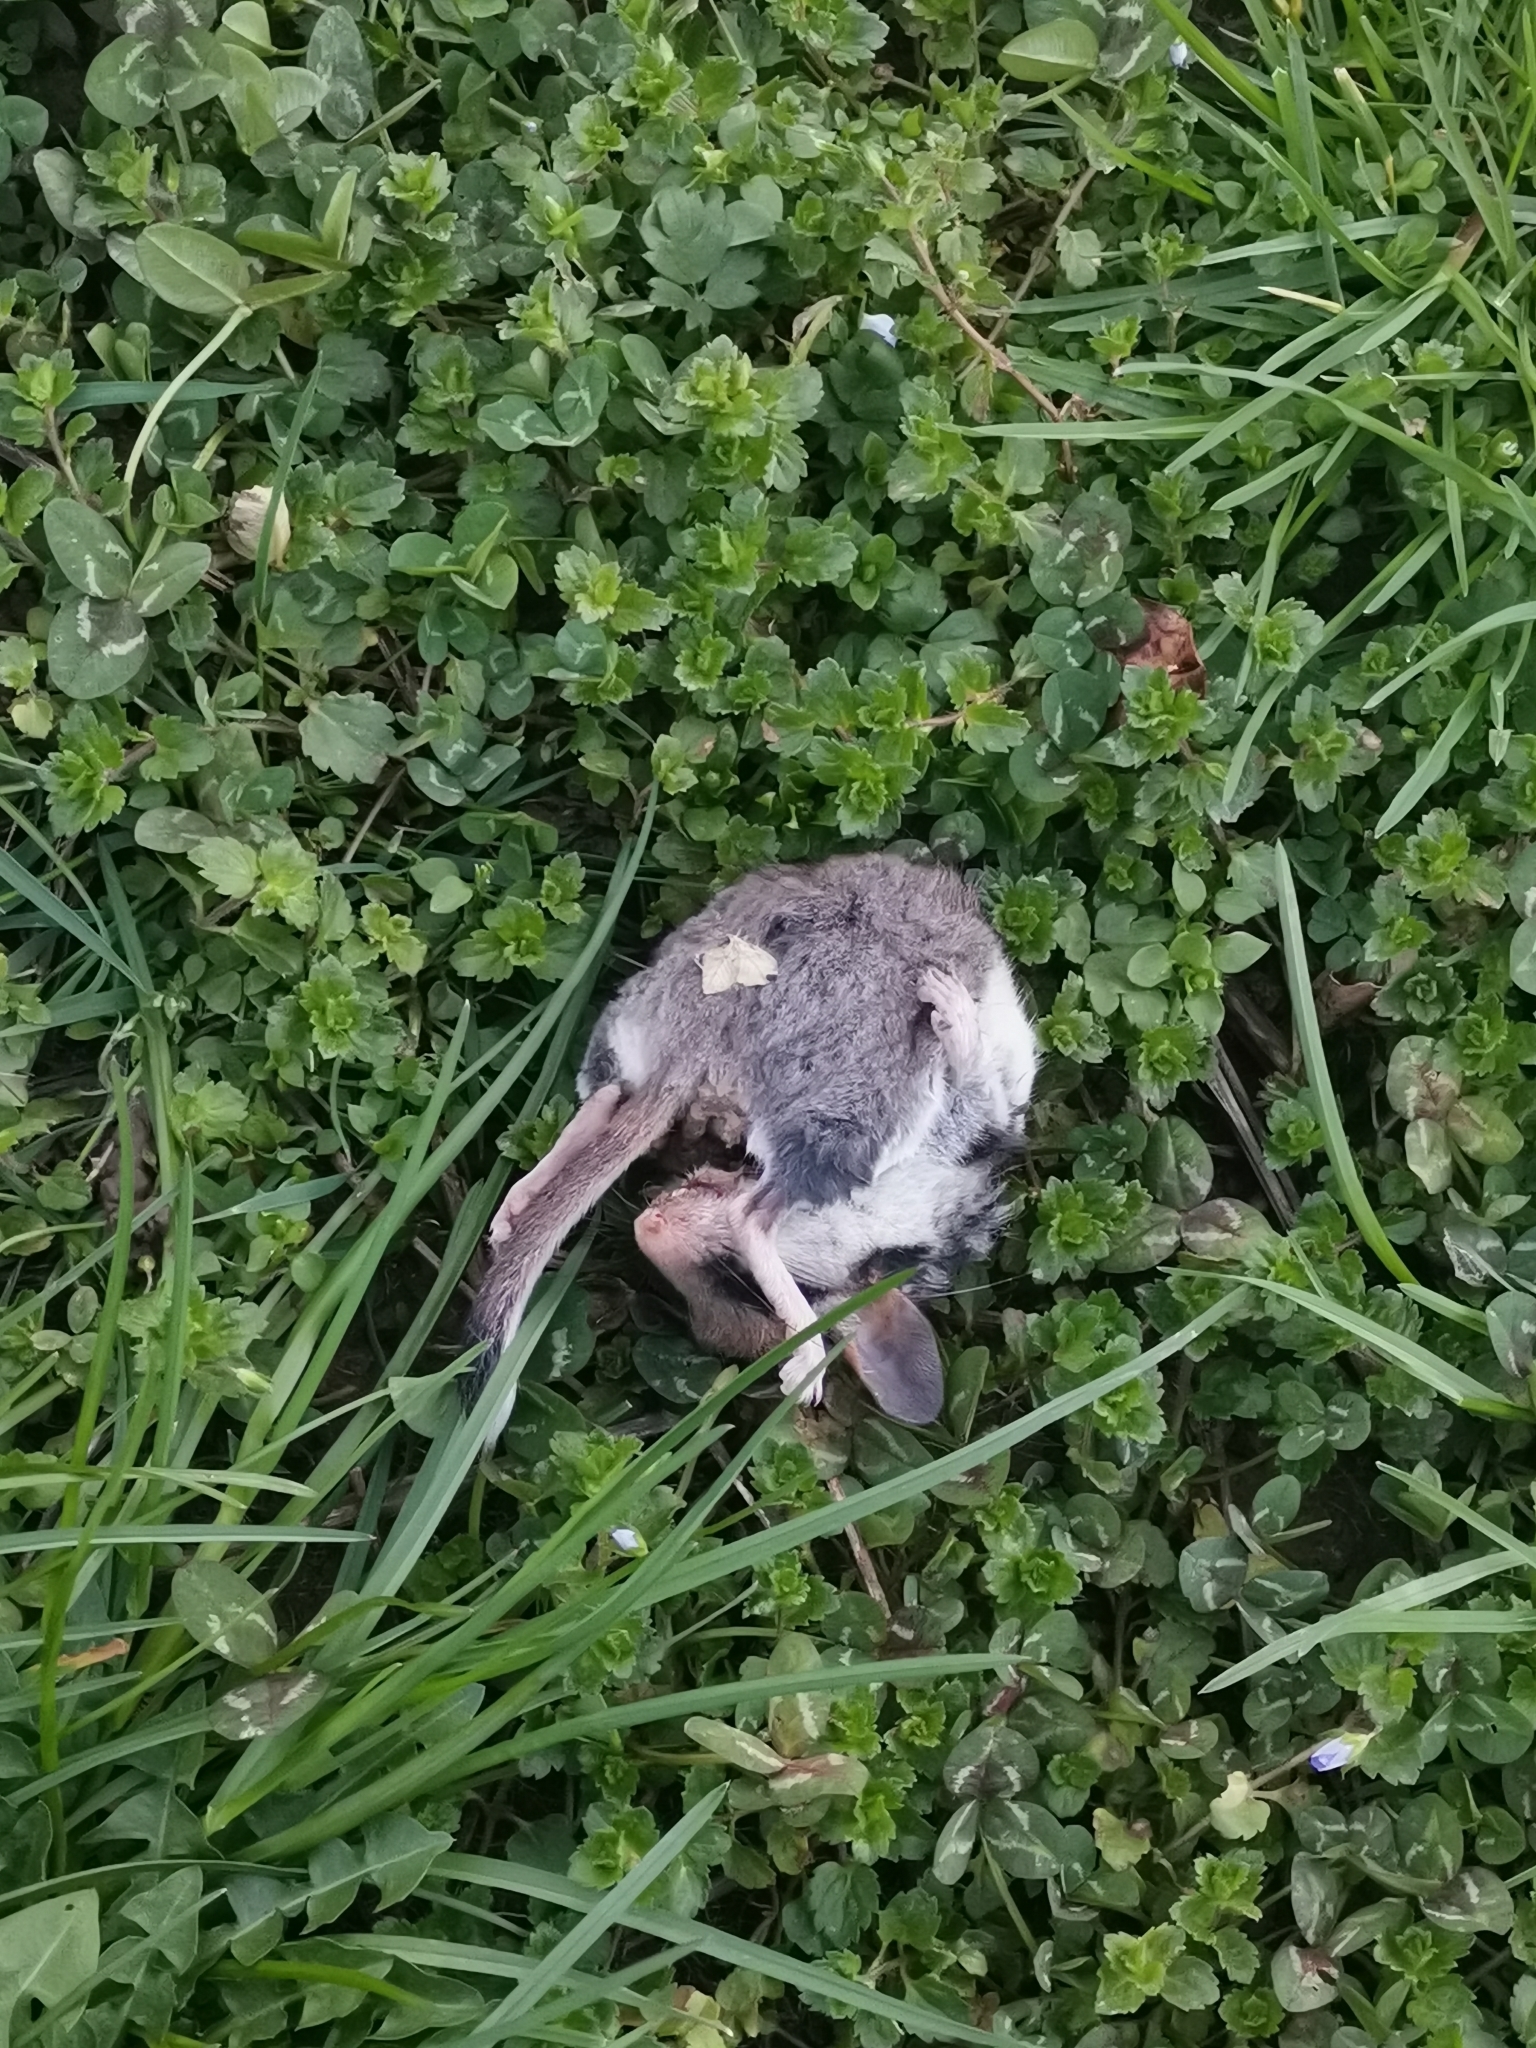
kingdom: Animalia
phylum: Chordata
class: Mammalia
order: Rodentia
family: Gliridae
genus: Eliomys
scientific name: Eliomys quercinus
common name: Garden dormouse
